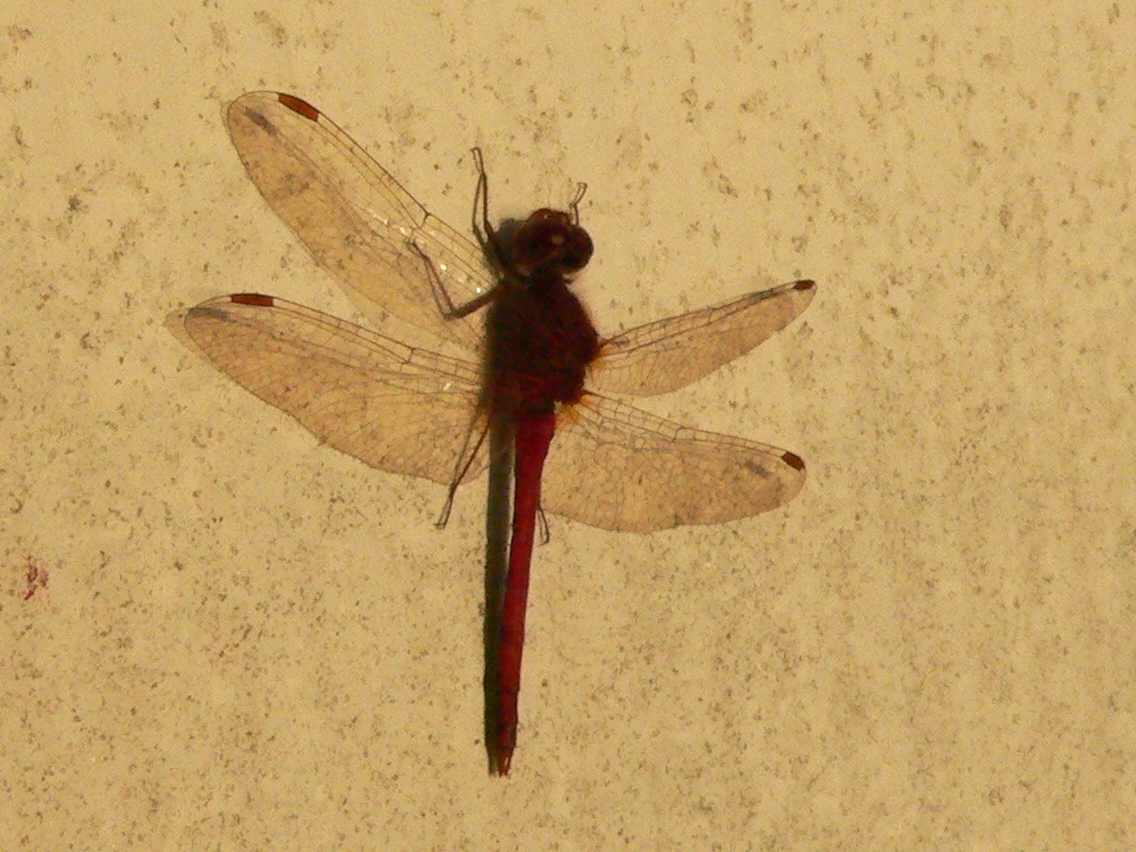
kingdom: Animalia
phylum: Arthropoda
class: Insecta
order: Odonata
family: Libellulidae
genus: Sympetrum
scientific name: Sympetrum vicinum
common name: Autumn meadowhawk
